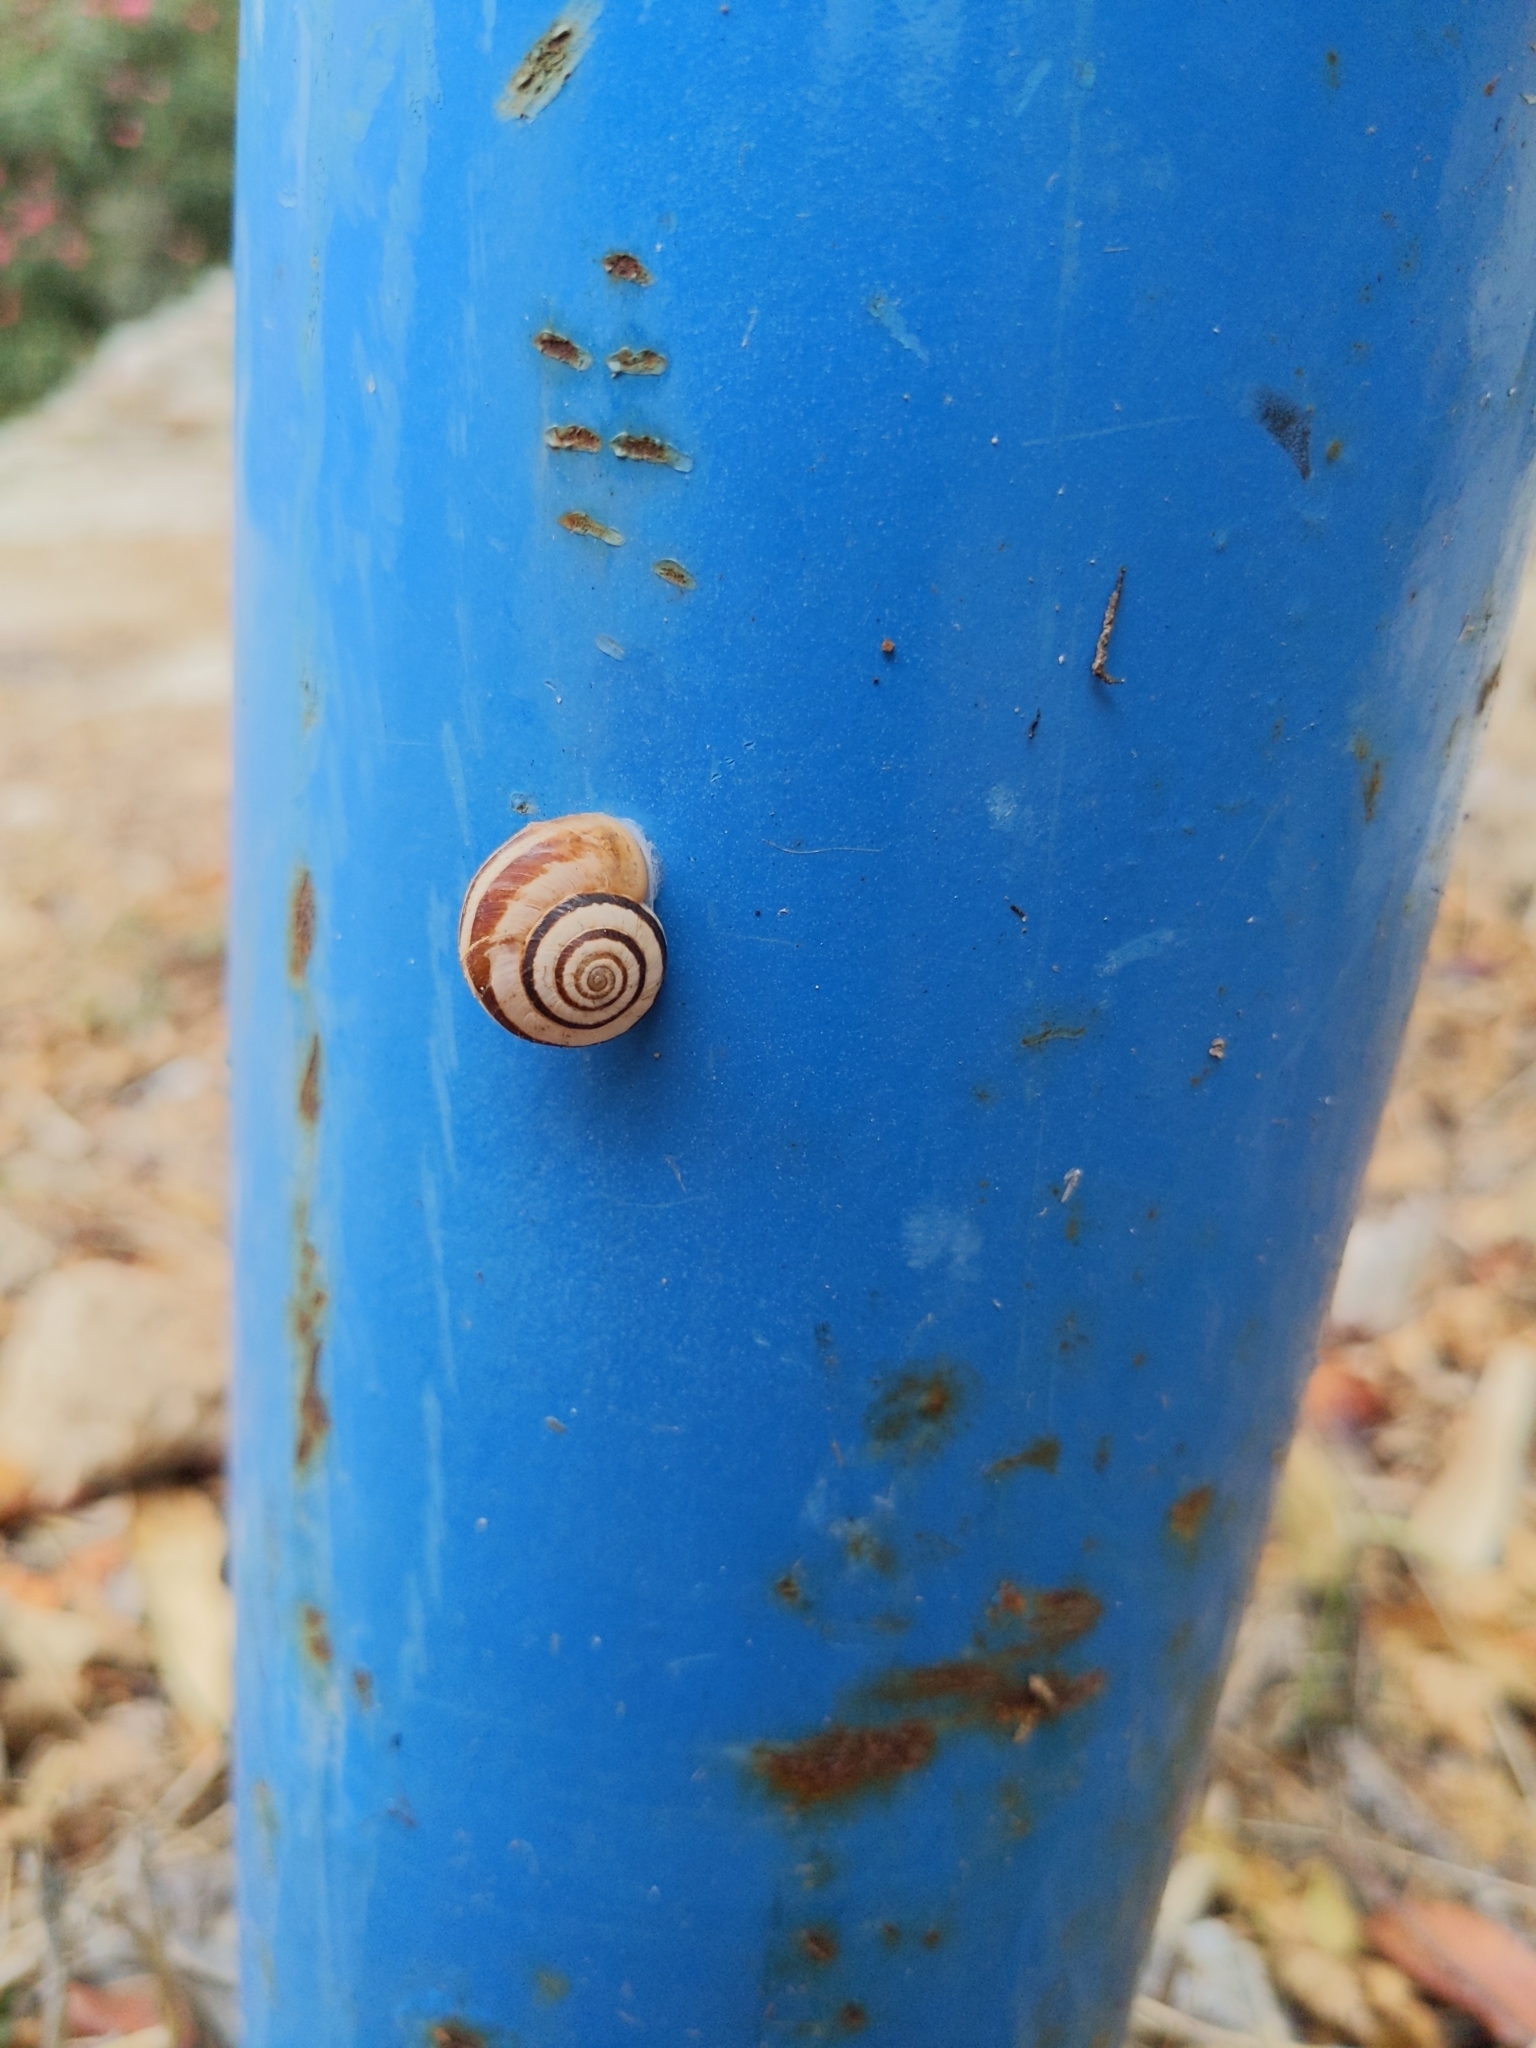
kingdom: Animalia
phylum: Mollusca
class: Gastropoda
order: Stylommatophora
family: Geomitridae
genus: Cernuella
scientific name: Cernuella virgata
